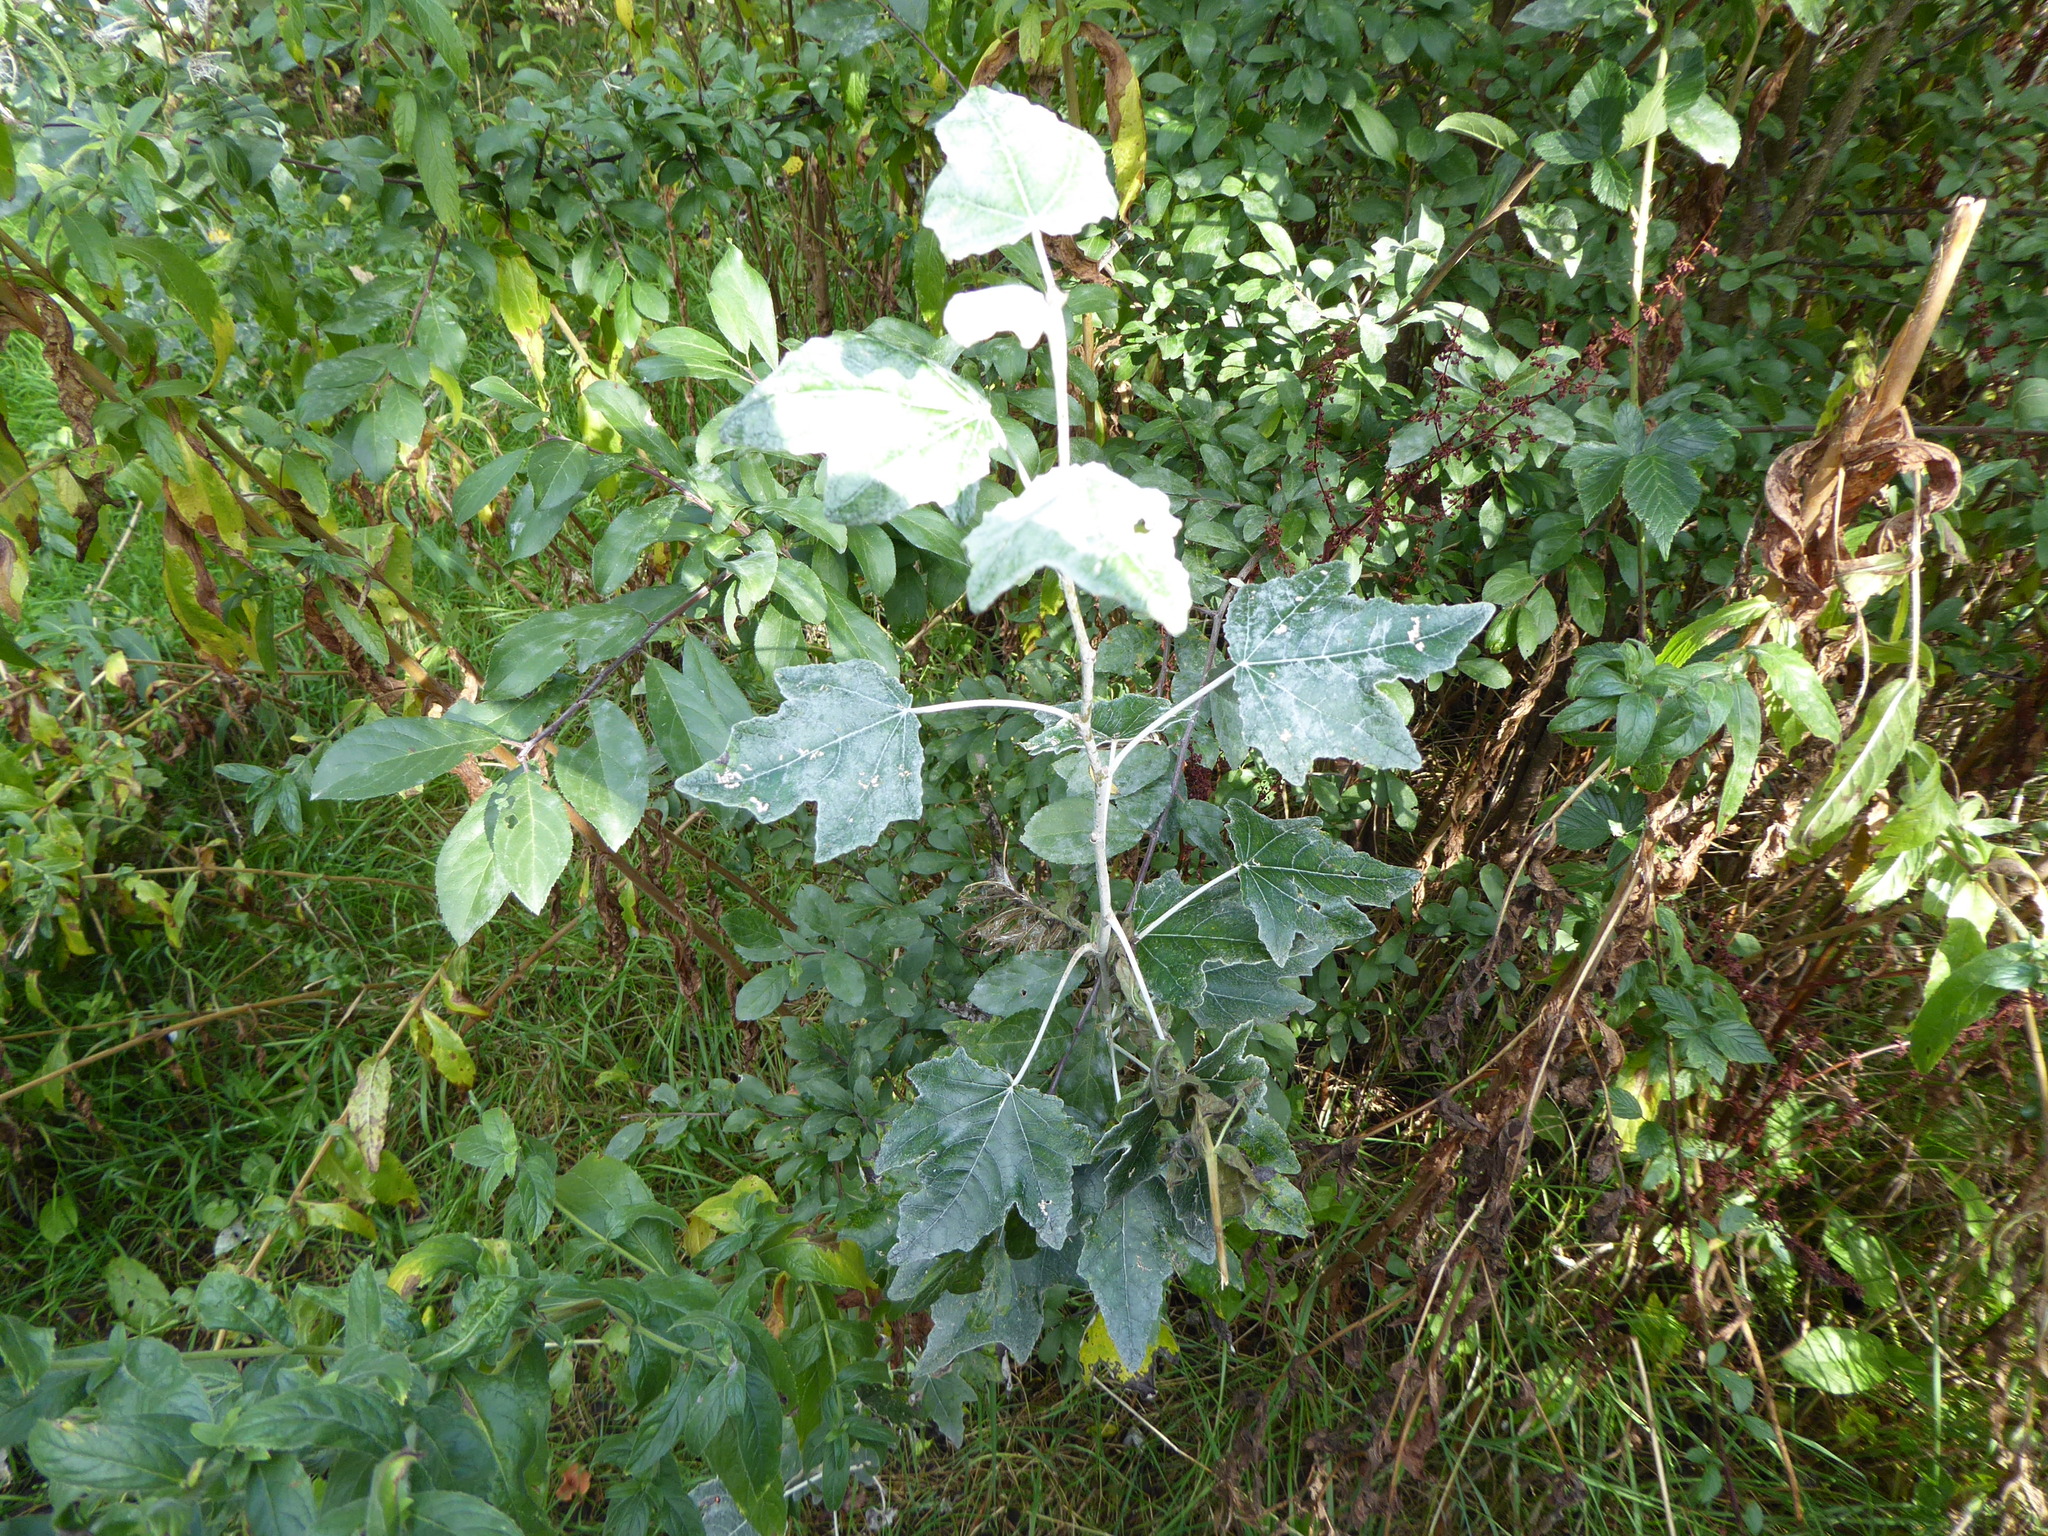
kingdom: Plantae
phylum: Tracheophyta
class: Magnoliopsida
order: Malpighiales
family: Salicaceae
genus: Populus
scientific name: Populus alba
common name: White poplar
